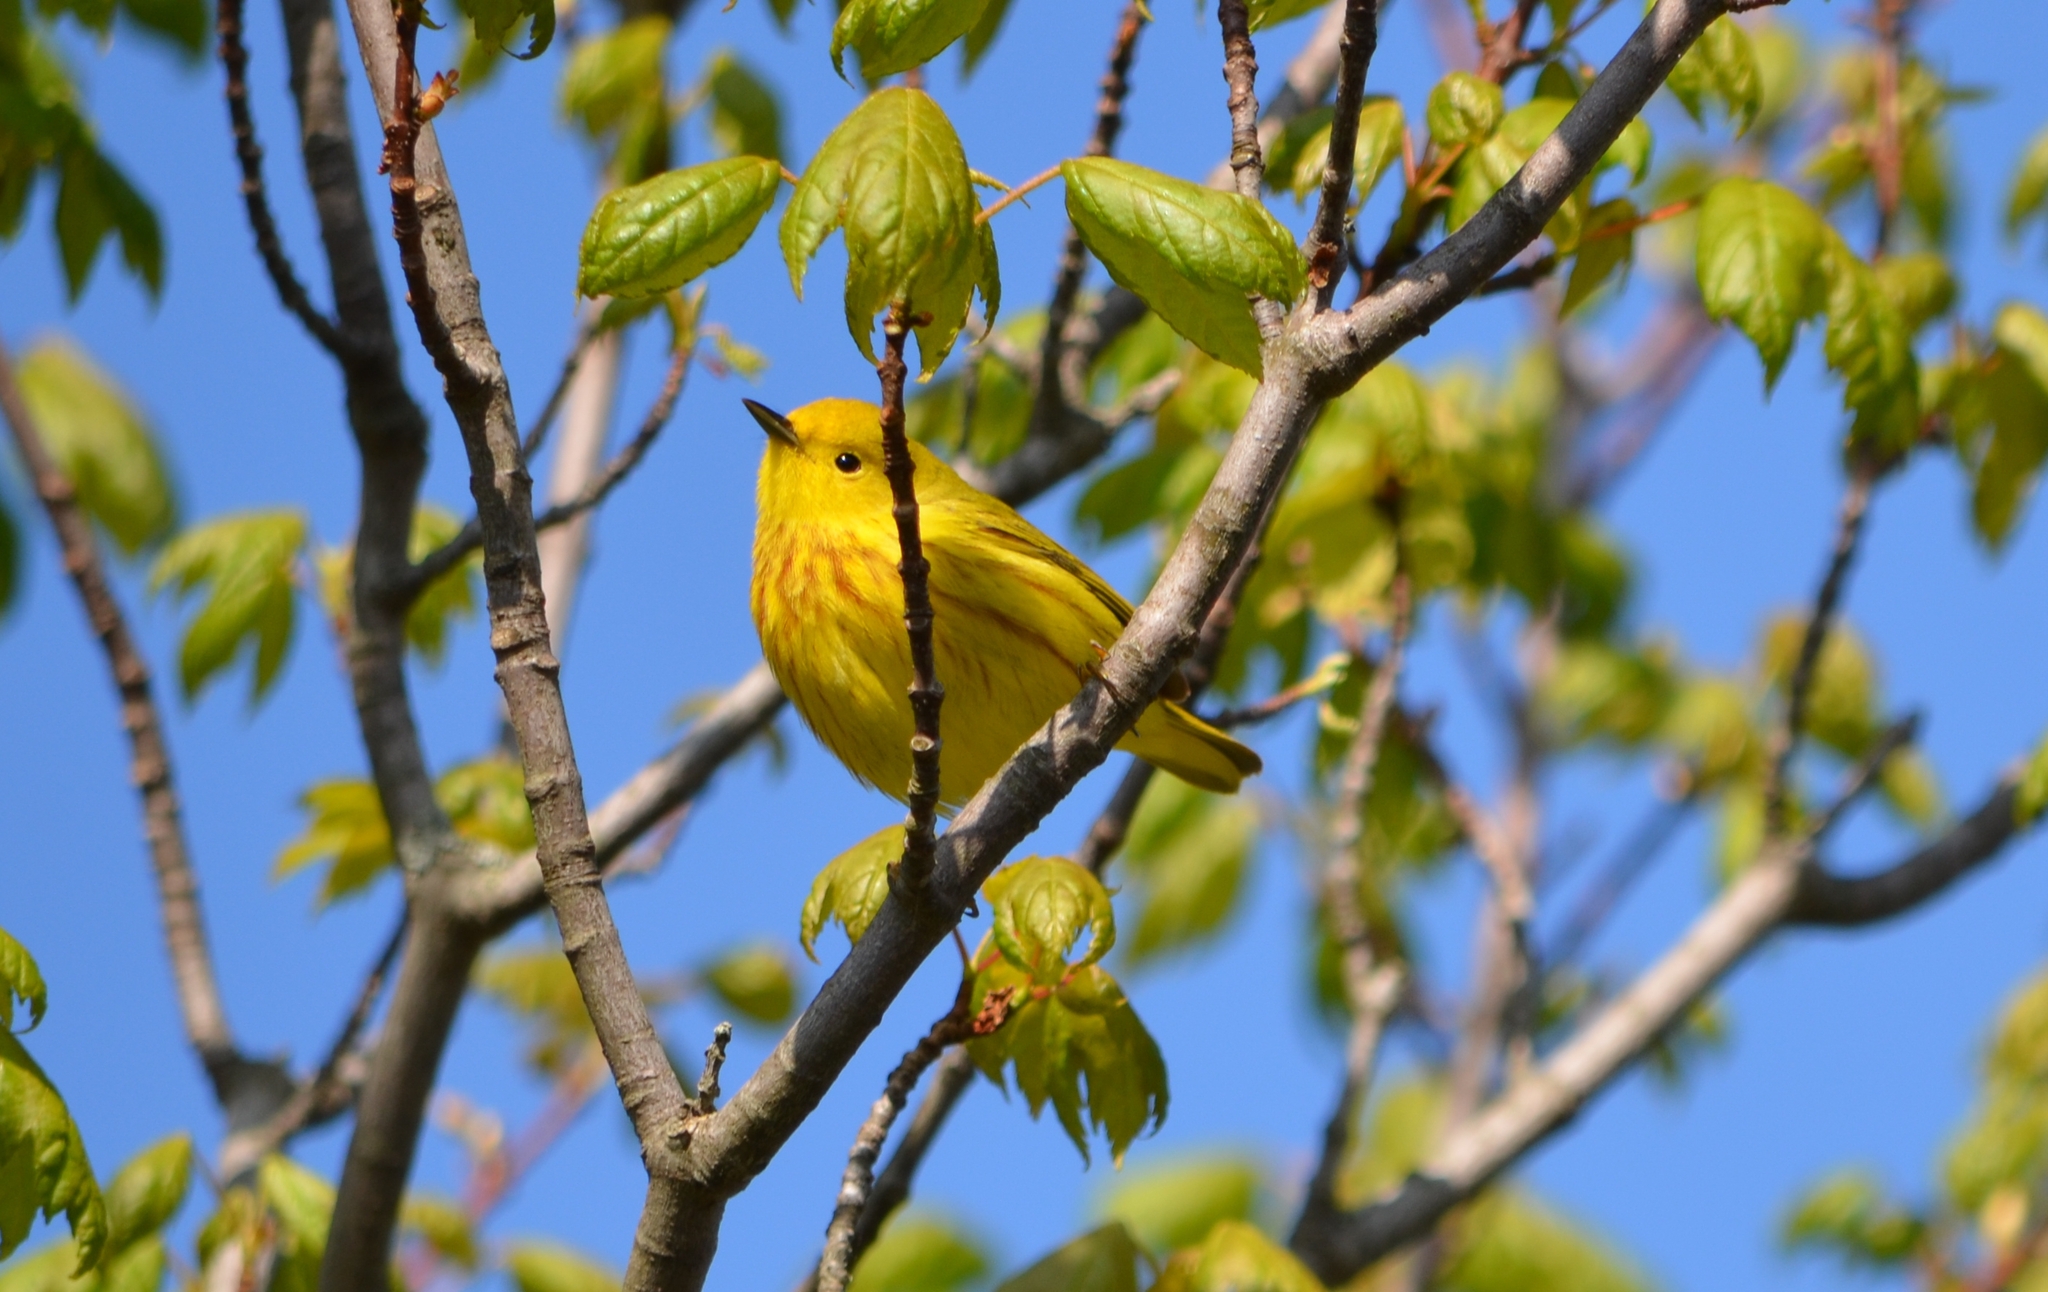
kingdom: Animalia
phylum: Chordata
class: Aves
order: Passeriformes
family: Parulidae
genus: Setophaga
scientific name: Setophaga petechia
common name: Yellow warbler
